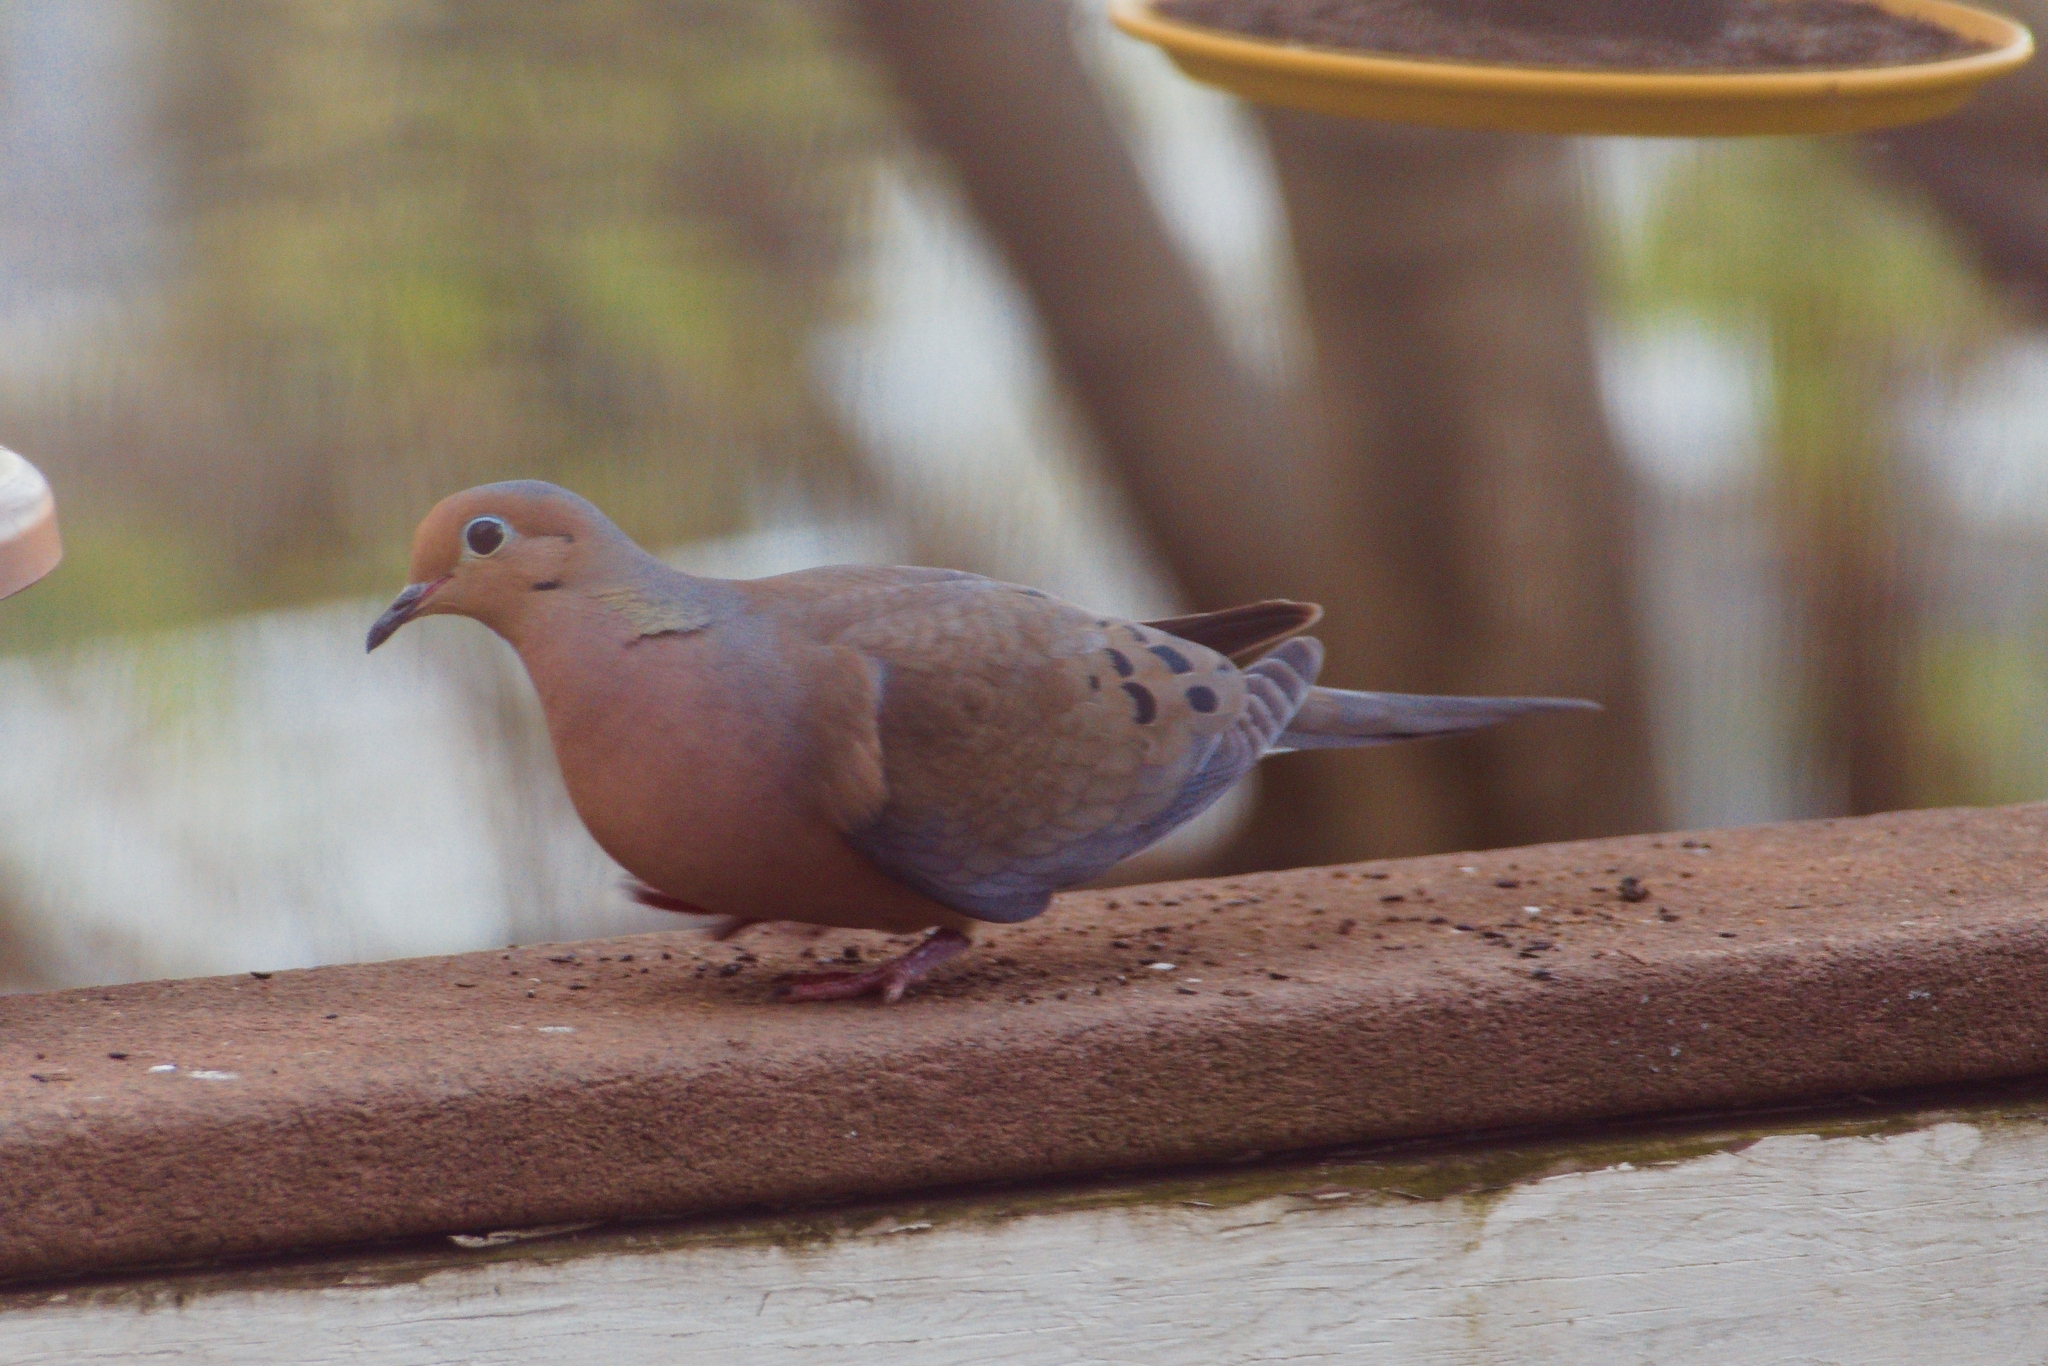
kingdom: Animalia
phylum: Chordata
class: Aves
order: Columbiformes
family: Columbidae
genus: Zenaida
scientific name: Zenaida macroura
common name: Mourning dove
